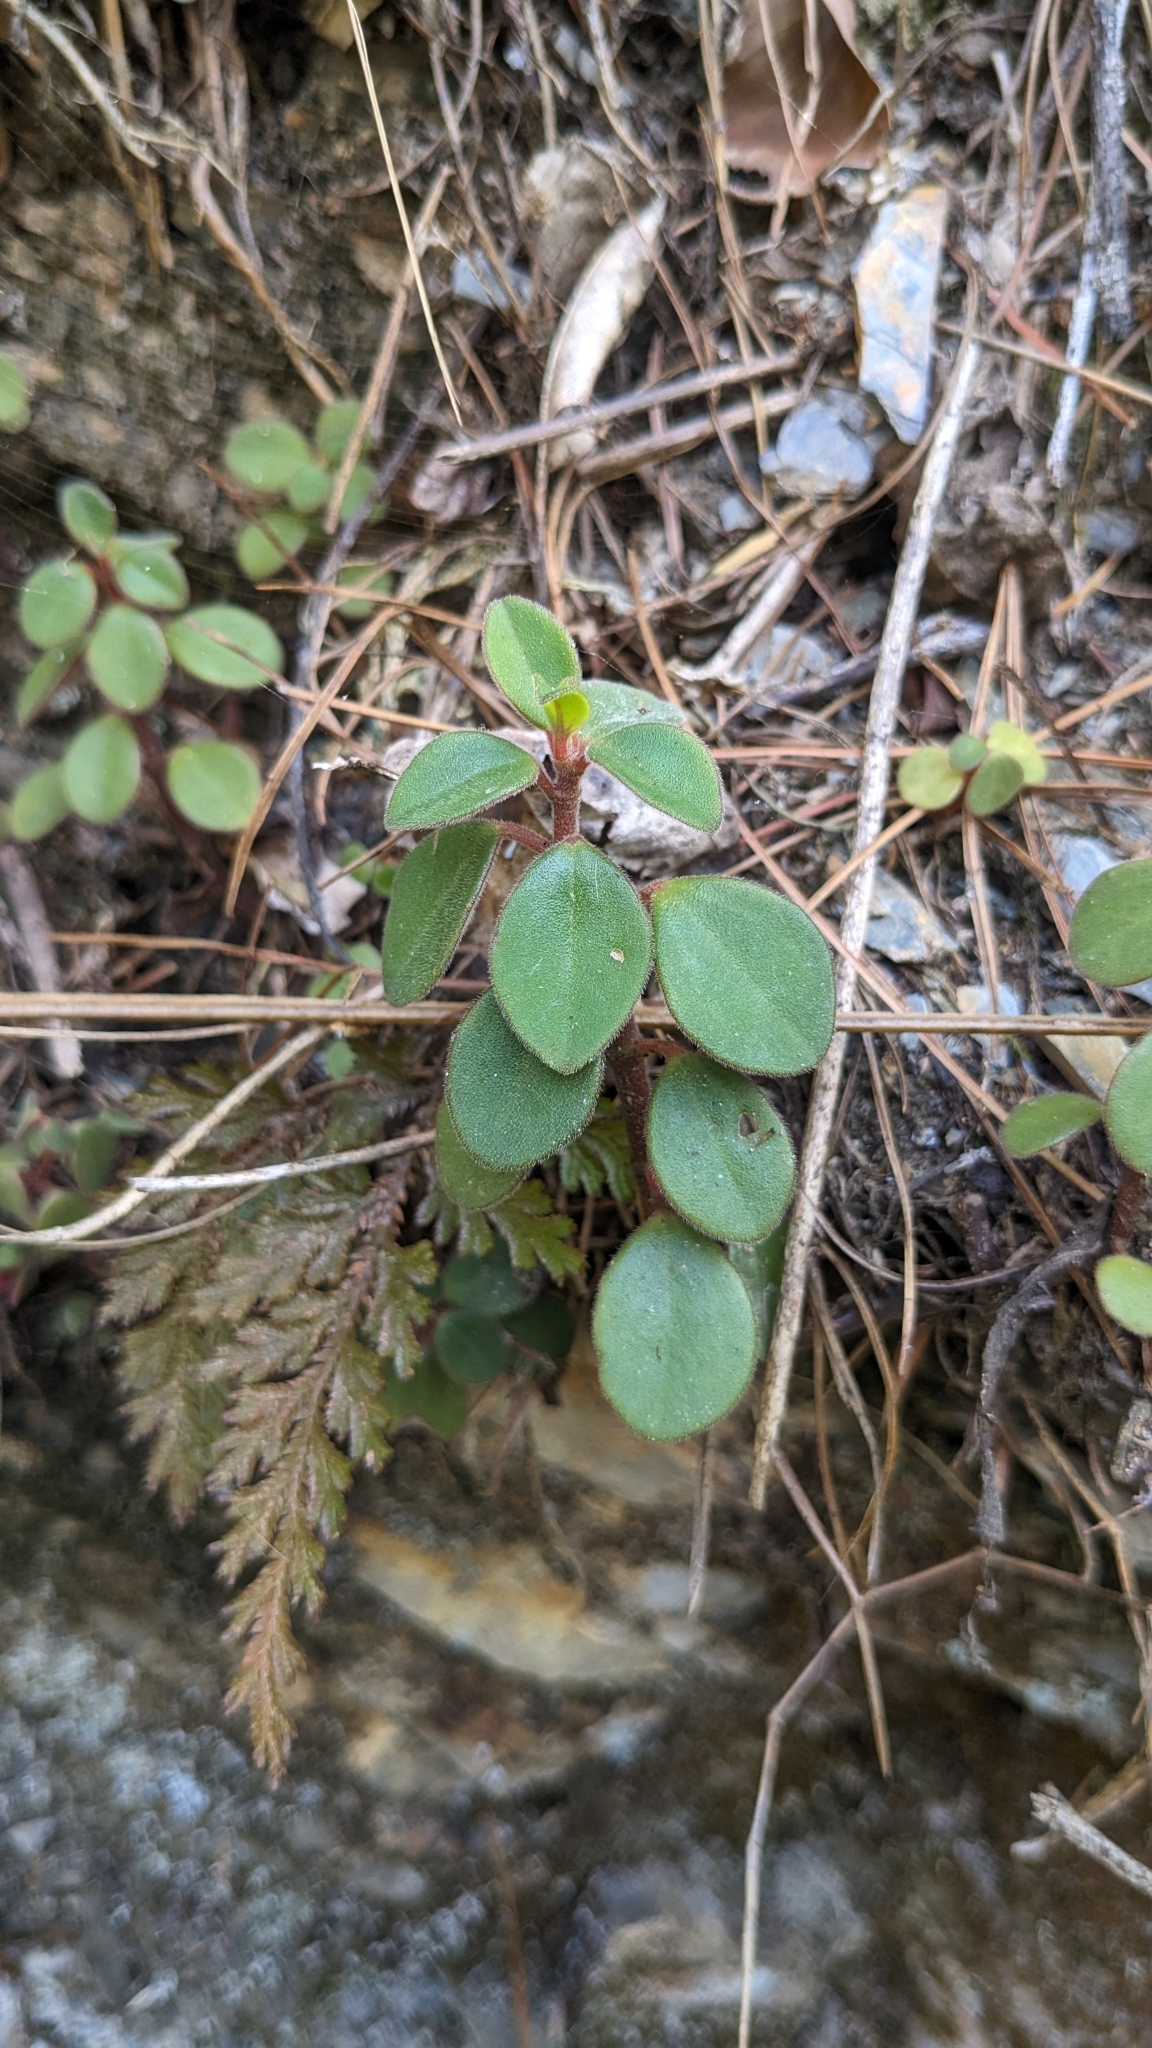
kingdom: Plantae
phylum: Tracheophyta
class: Magnoliopsida
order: Piperales
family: Piperaceae
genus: Peperomia
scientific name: Peperomia leptostachya
